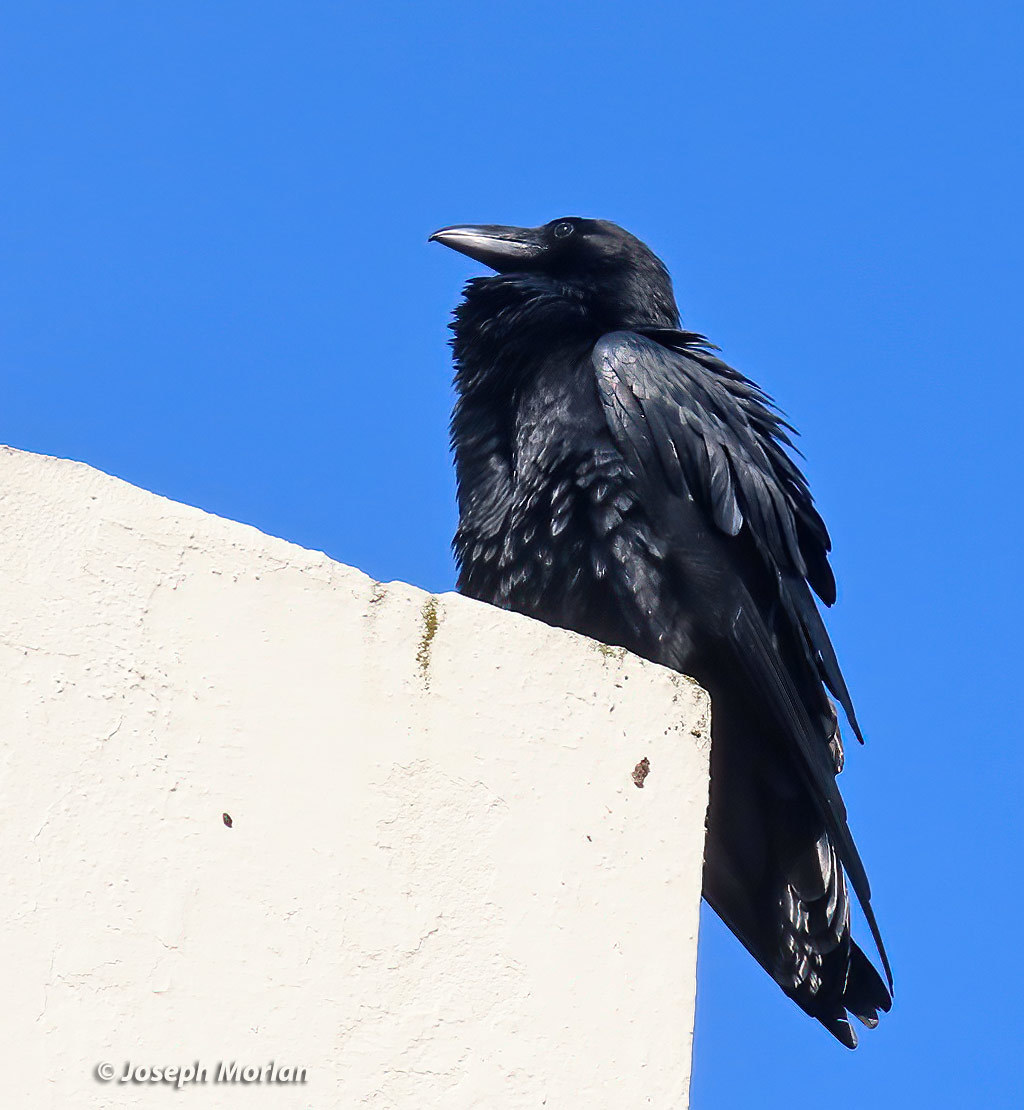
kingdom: Animalia
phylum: Chordata
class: Aves
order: Passeriformes
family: Corvidae
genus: Corvus
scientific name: Corvus corax
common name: Common raven
